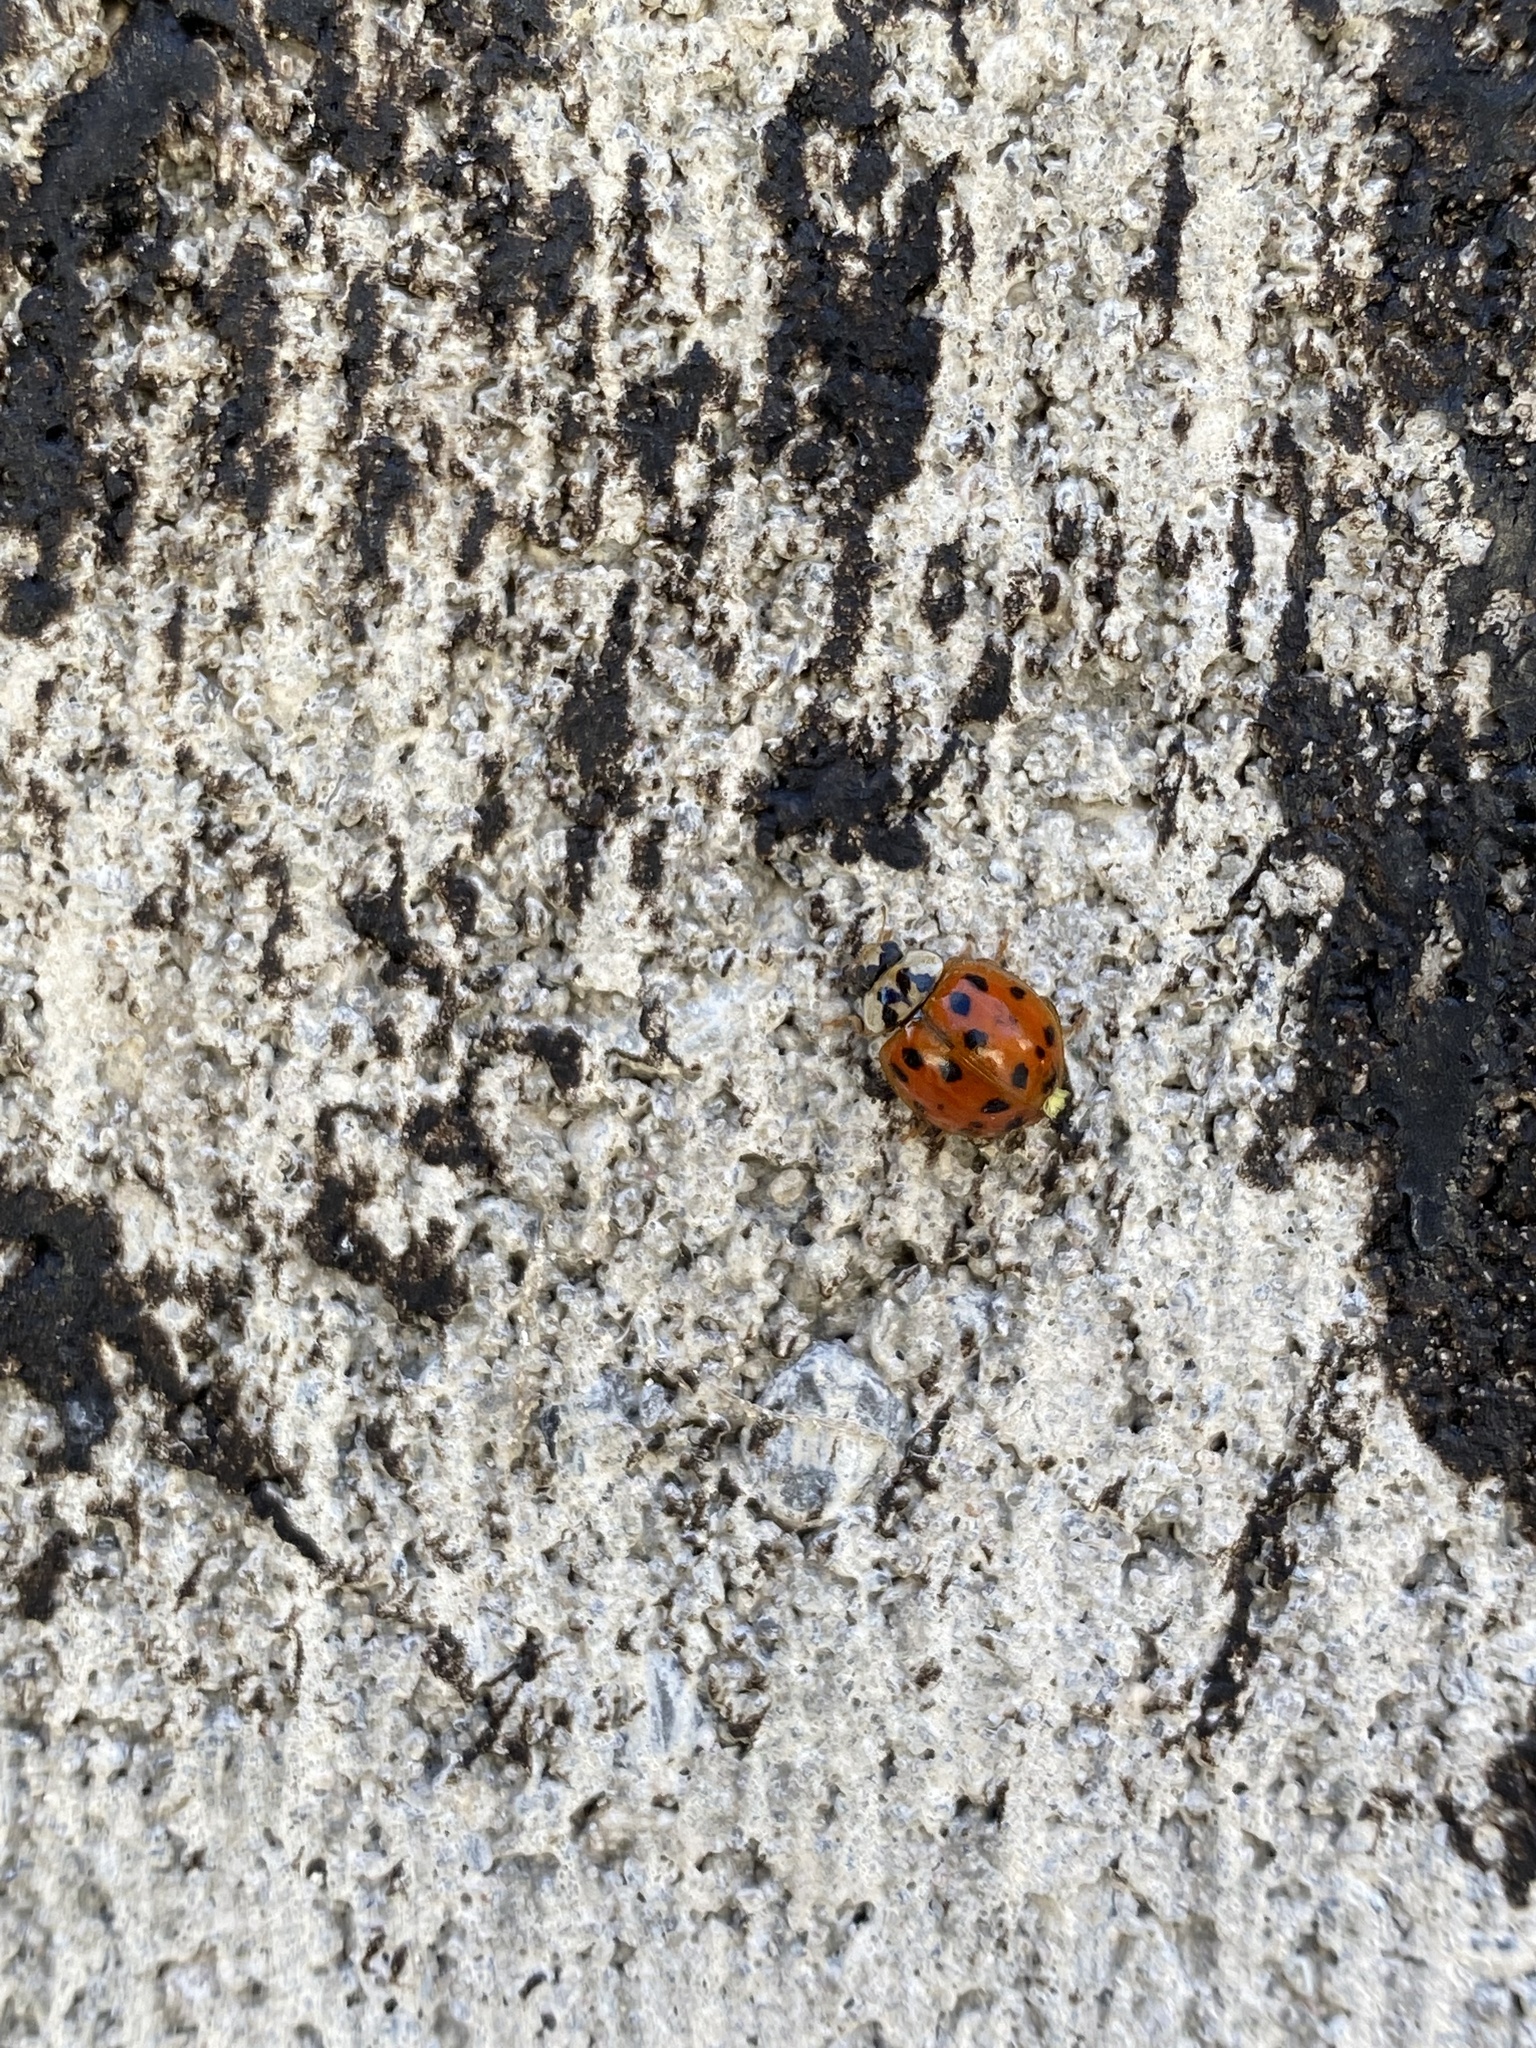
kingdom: Animalia
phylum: Arthropoda
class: Insecta
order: Coleoptera
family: Coccinellidae
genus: Harmonia
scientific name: Harmonia axyridis
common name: Harlequin ladybird
